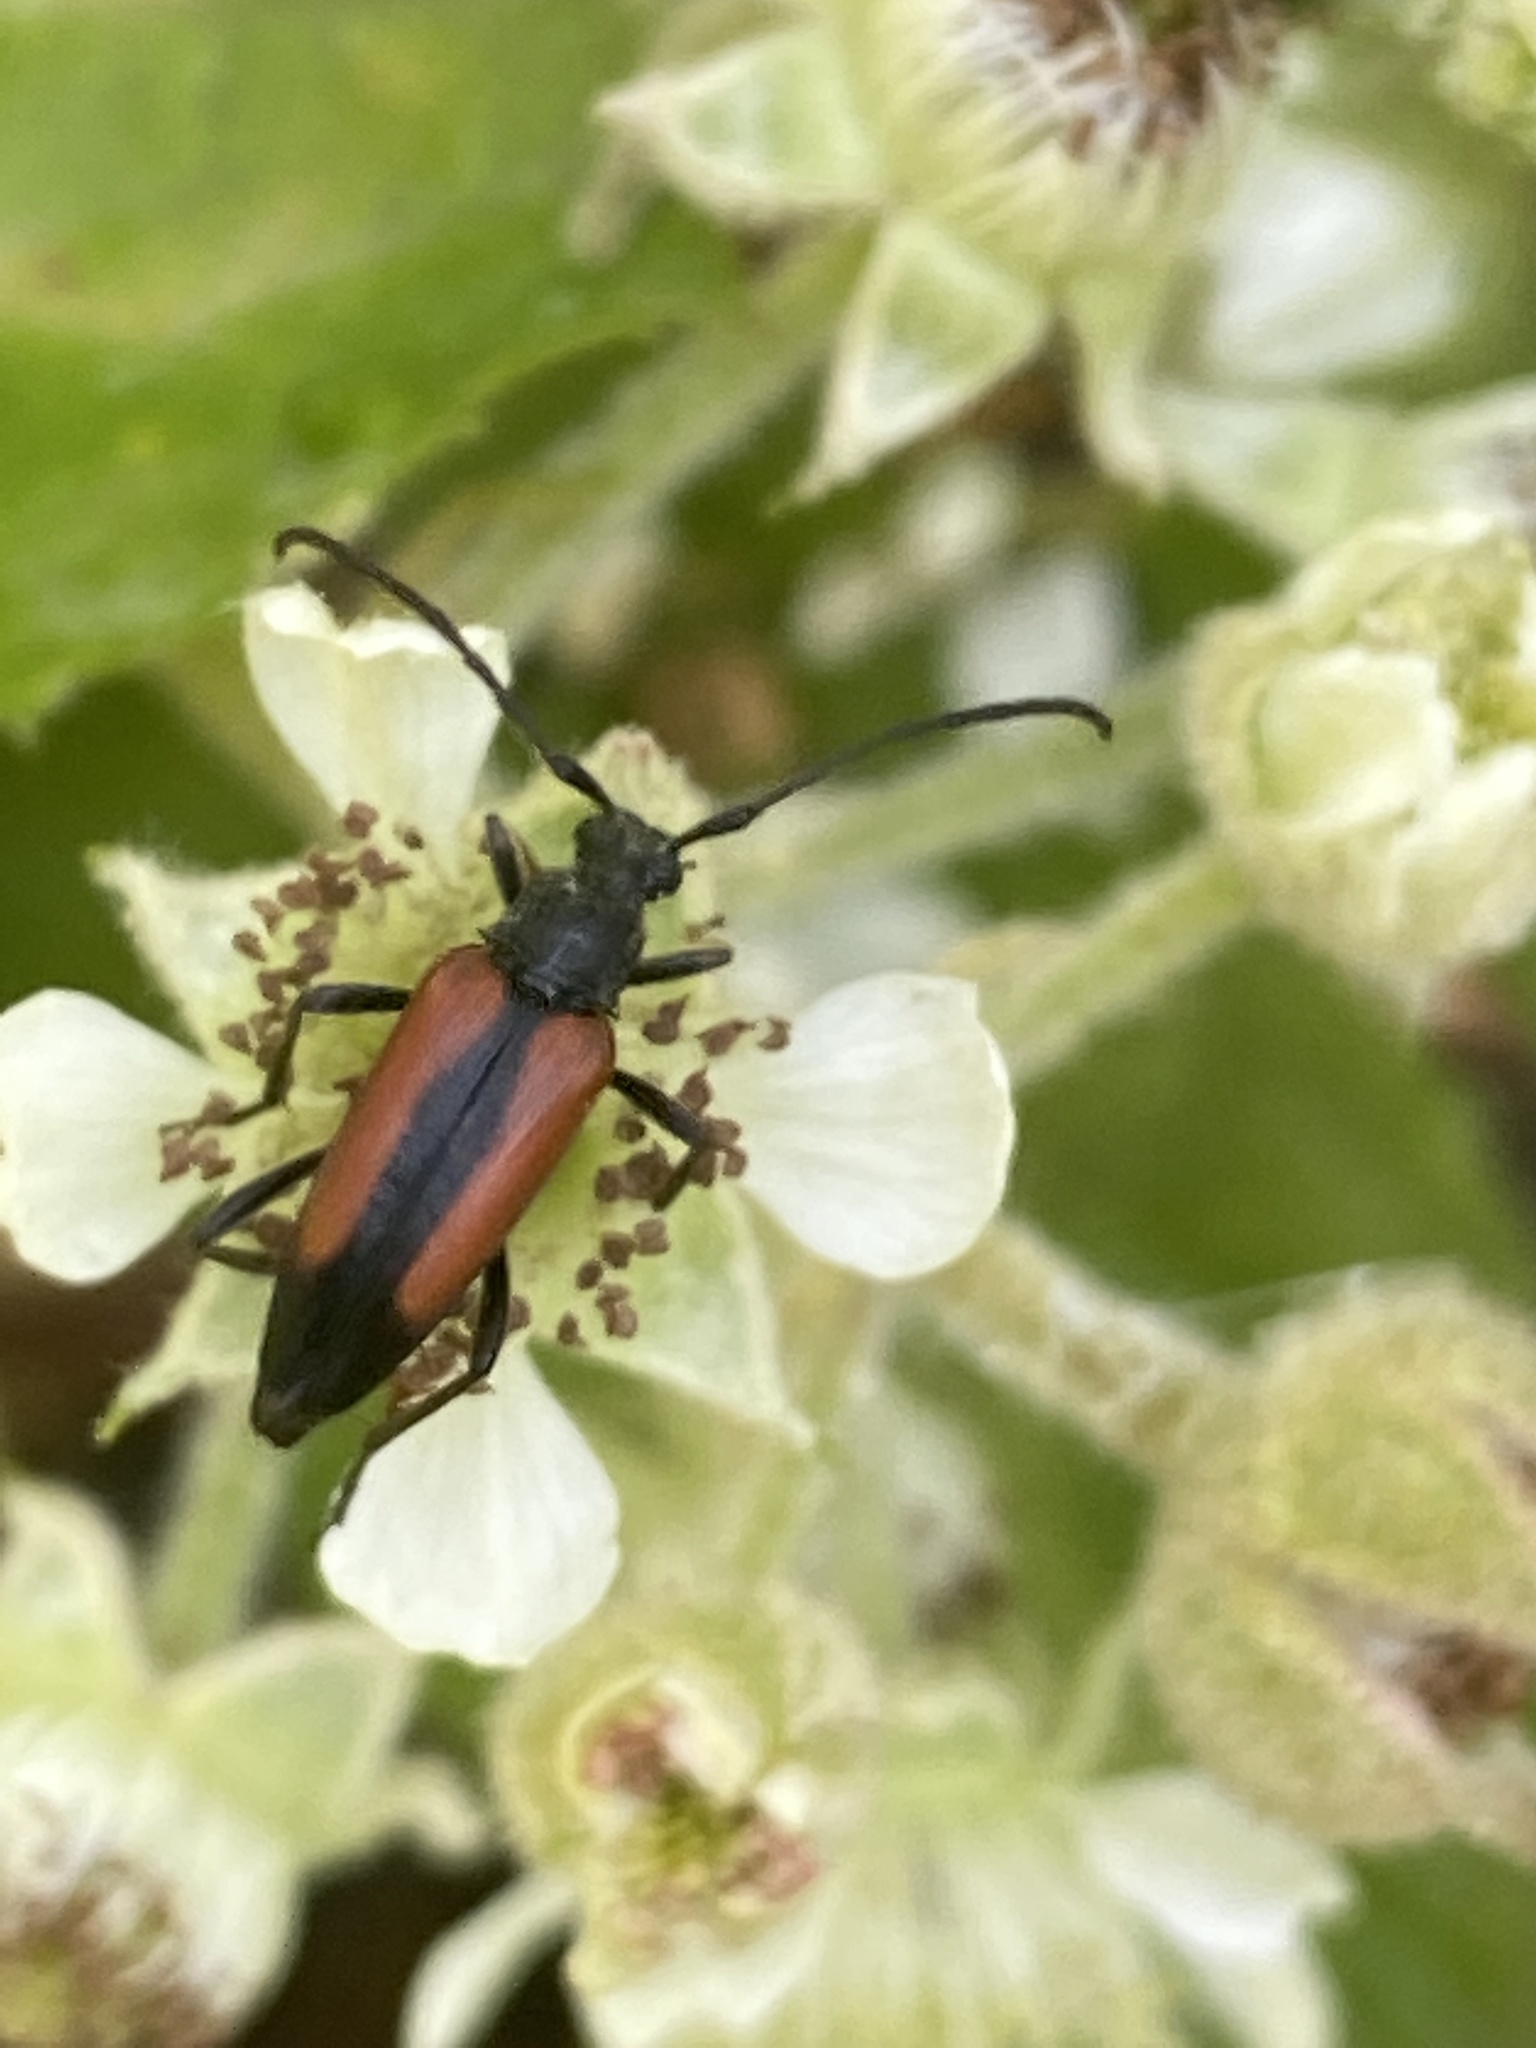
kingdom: Animalia
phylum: Arthropoda
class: Insecta
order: Coleoptera
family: Cerambycidae
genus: Stenurella
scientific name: Stenurella melanura
